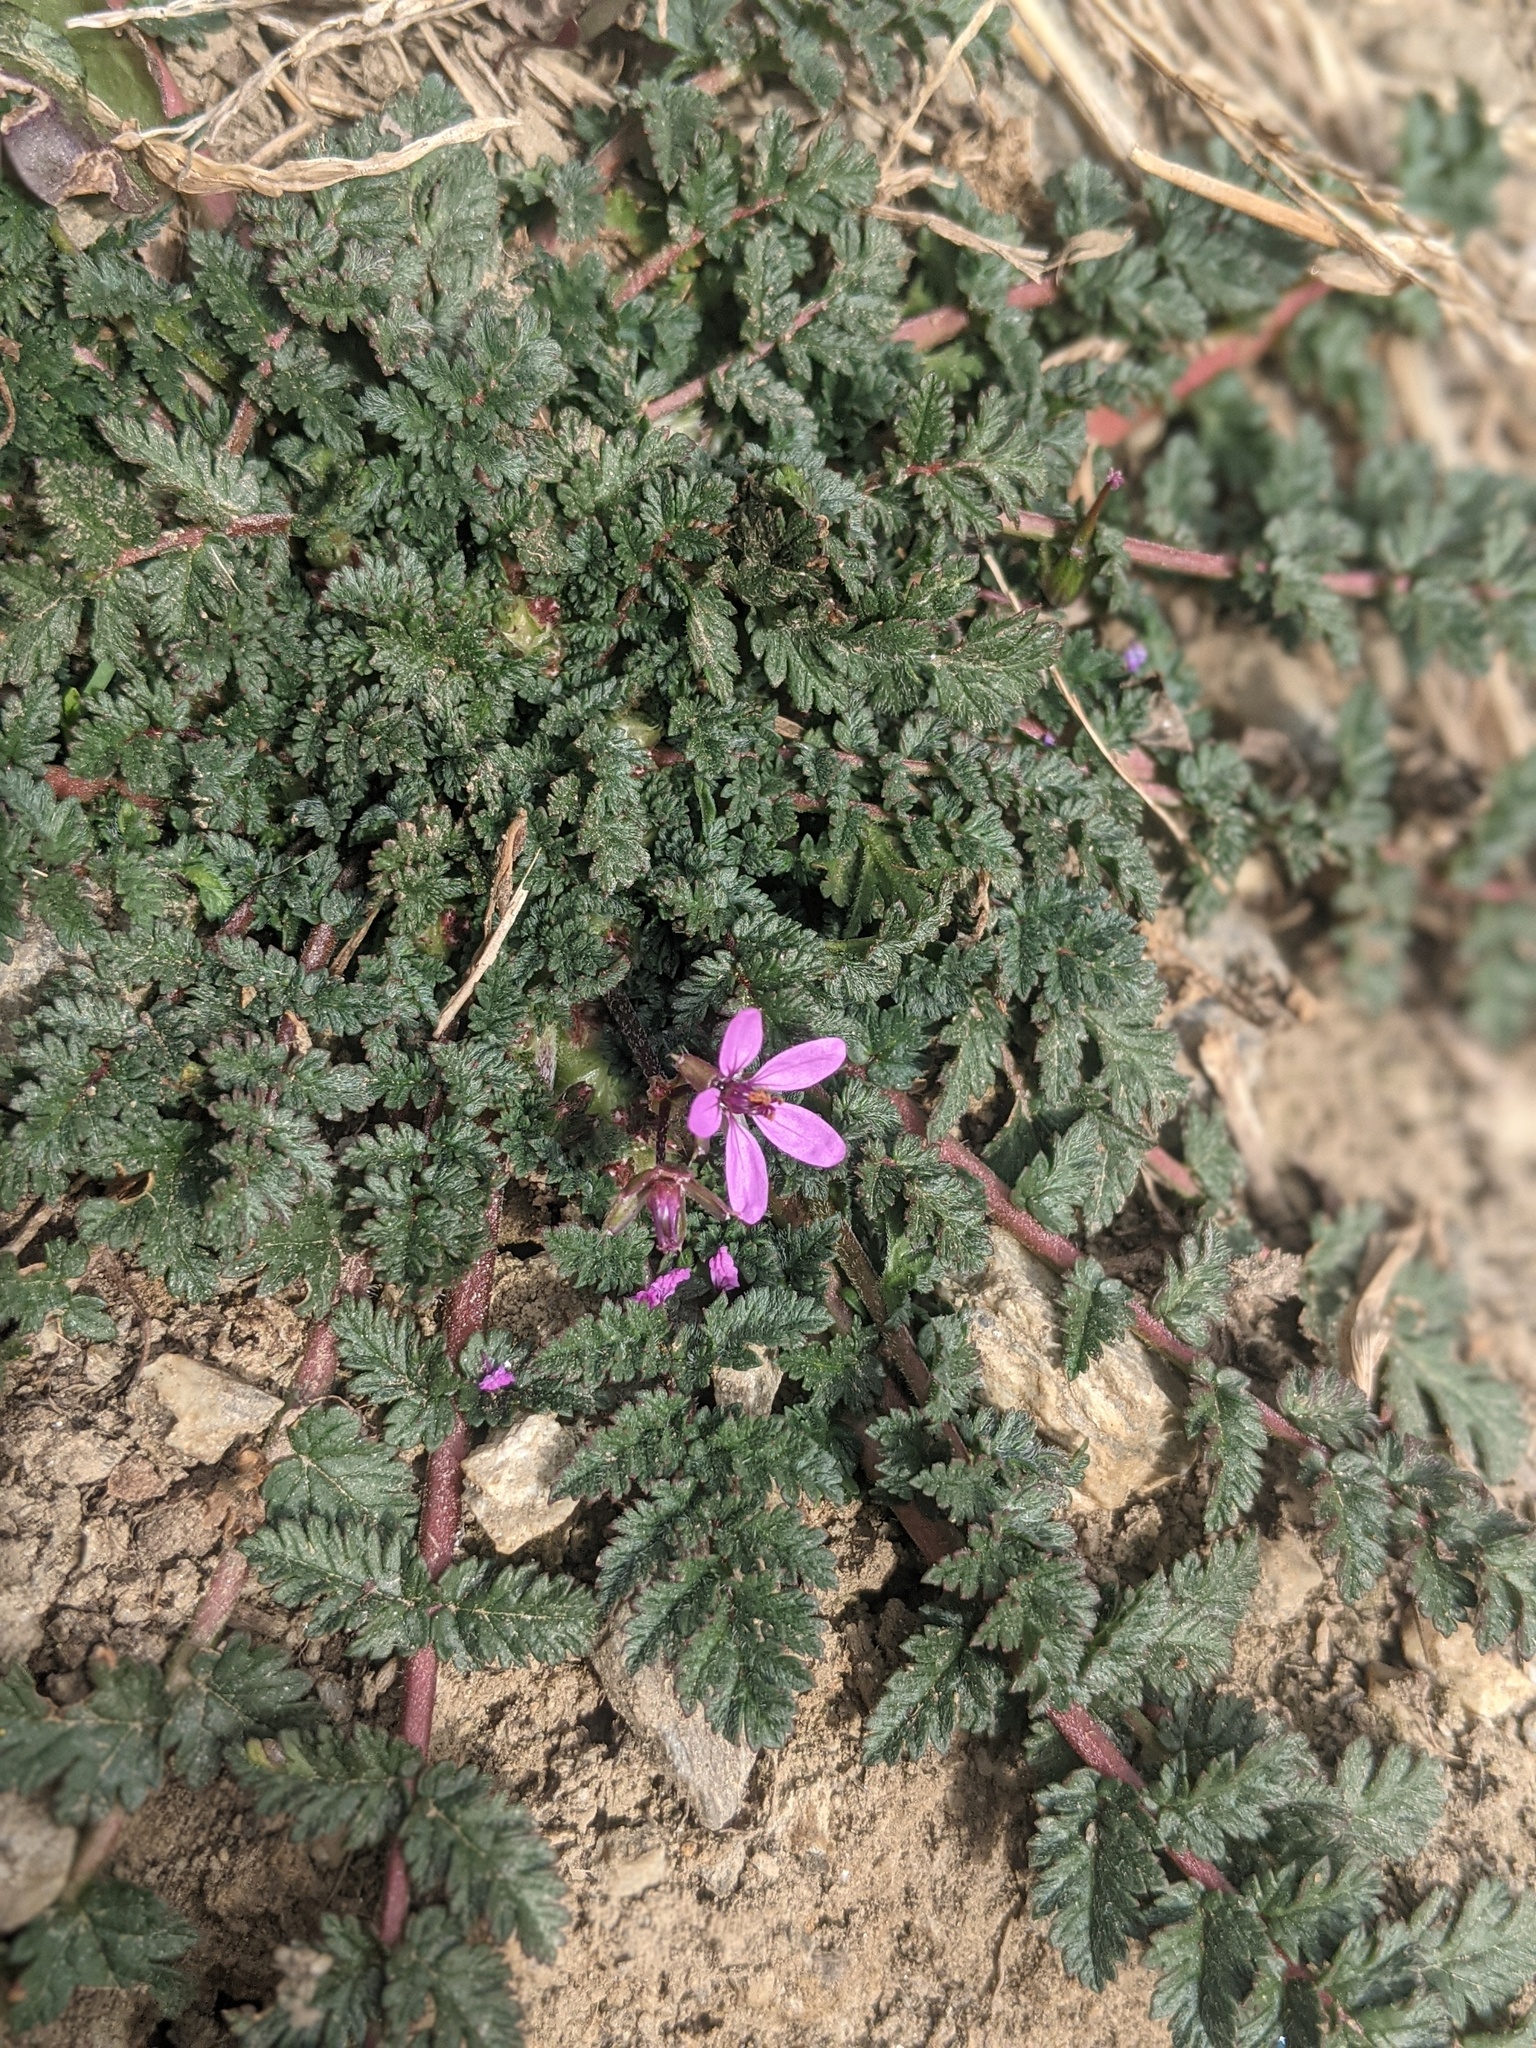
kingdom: Plantae
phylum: Tracheophyta
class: Magnoliopsida
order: Geraniales
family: Geraniaceae
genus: Erodium
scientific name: Erodium cicutarium
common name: Common stork's-bill
